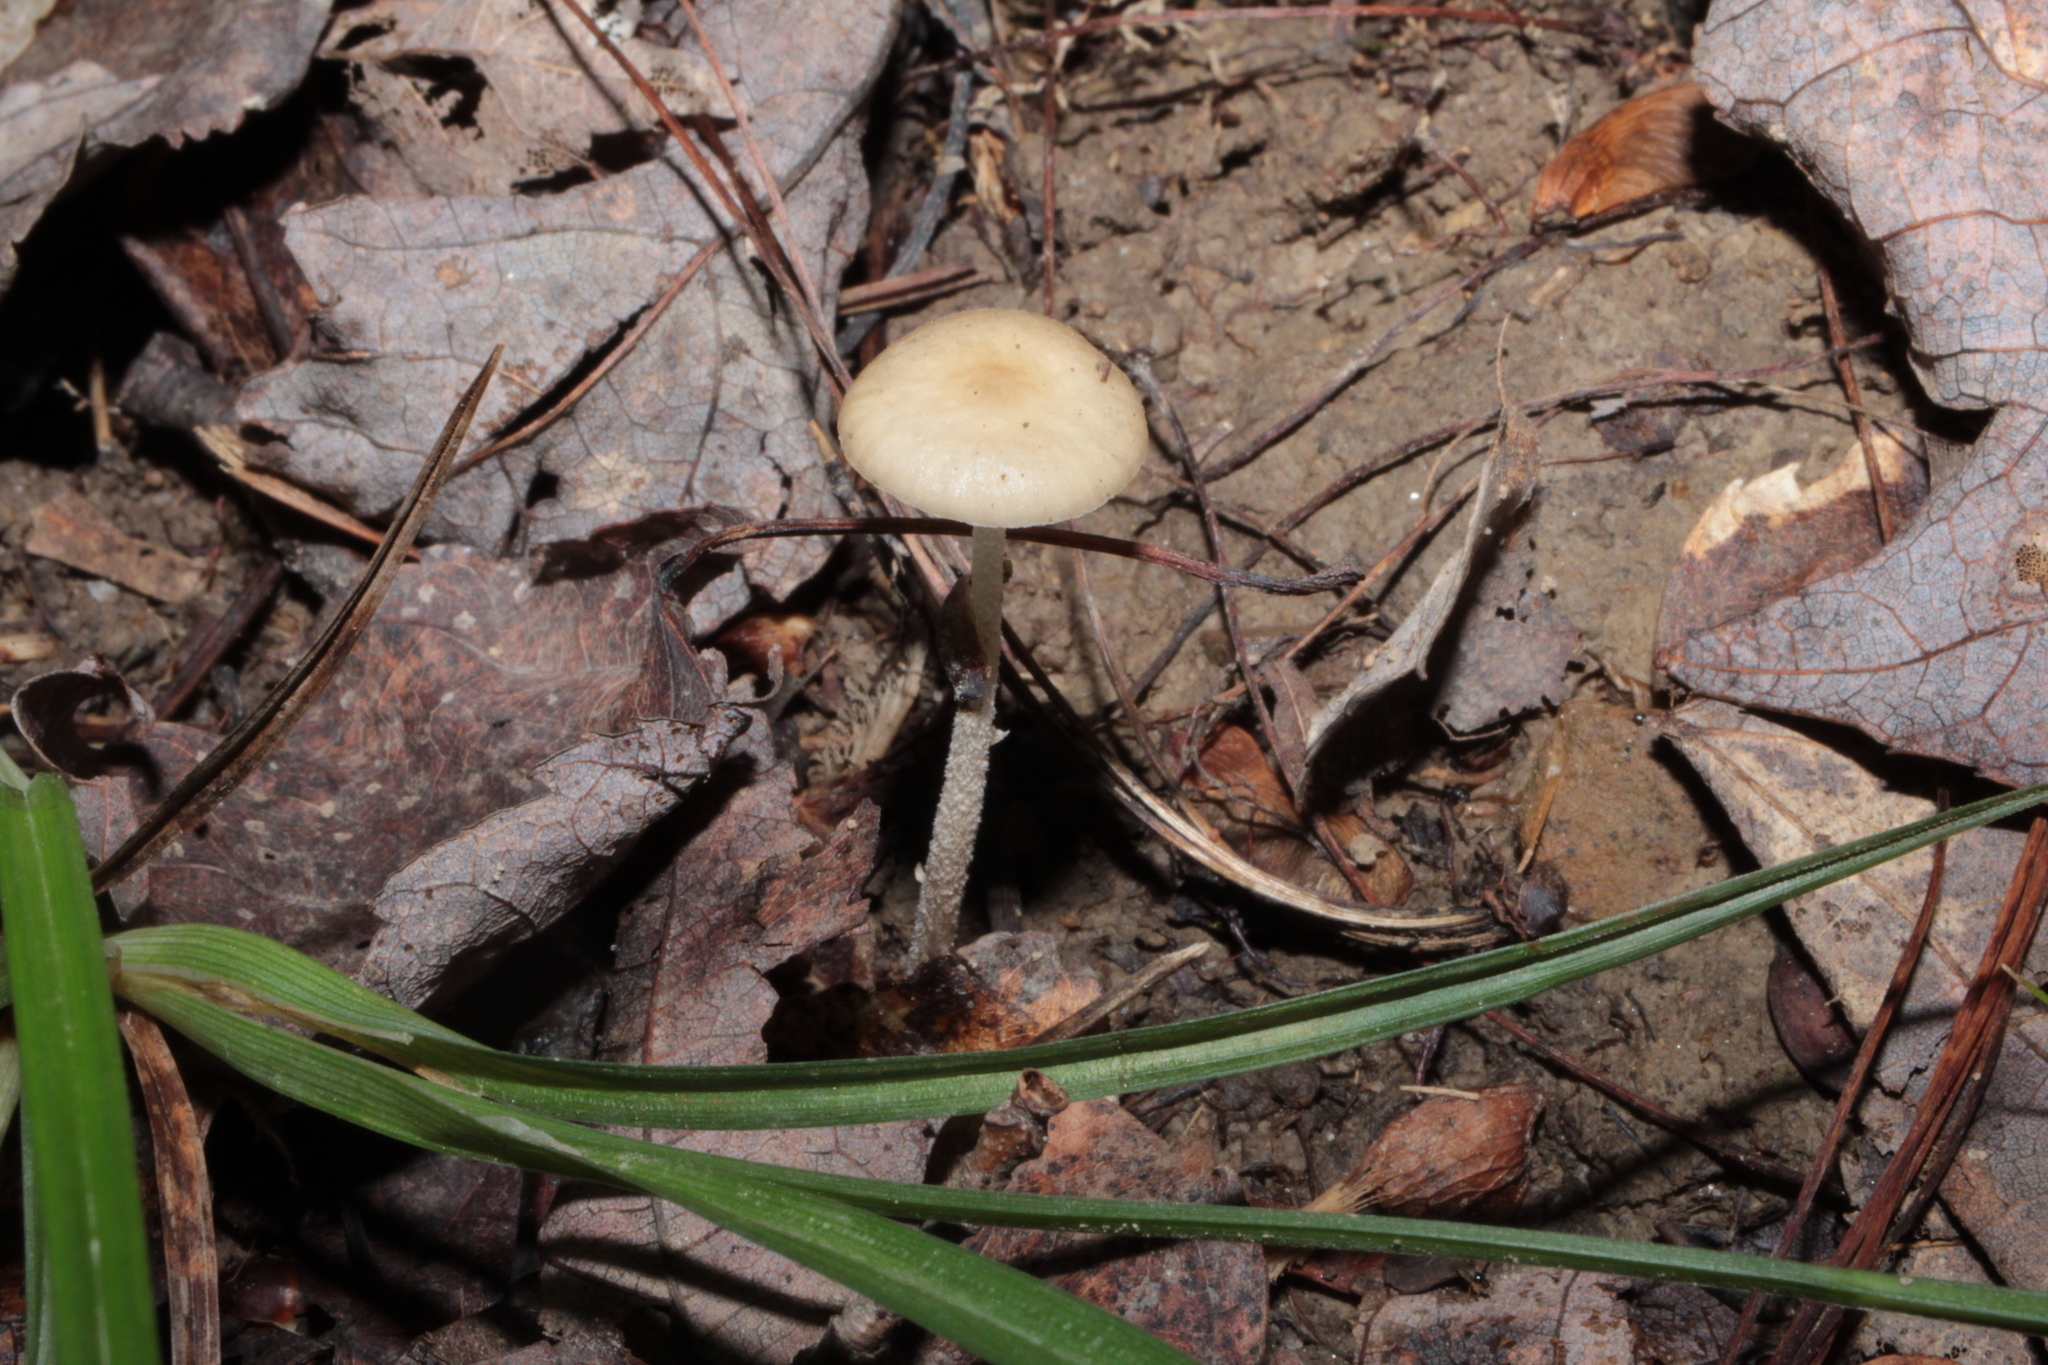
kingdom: Fungi
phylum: Basidiomycota
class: Agaricomycetes
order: Agaricales
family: Physalacriaceae
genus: Hymenopellis
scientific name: Hymenopellis furfuracea
